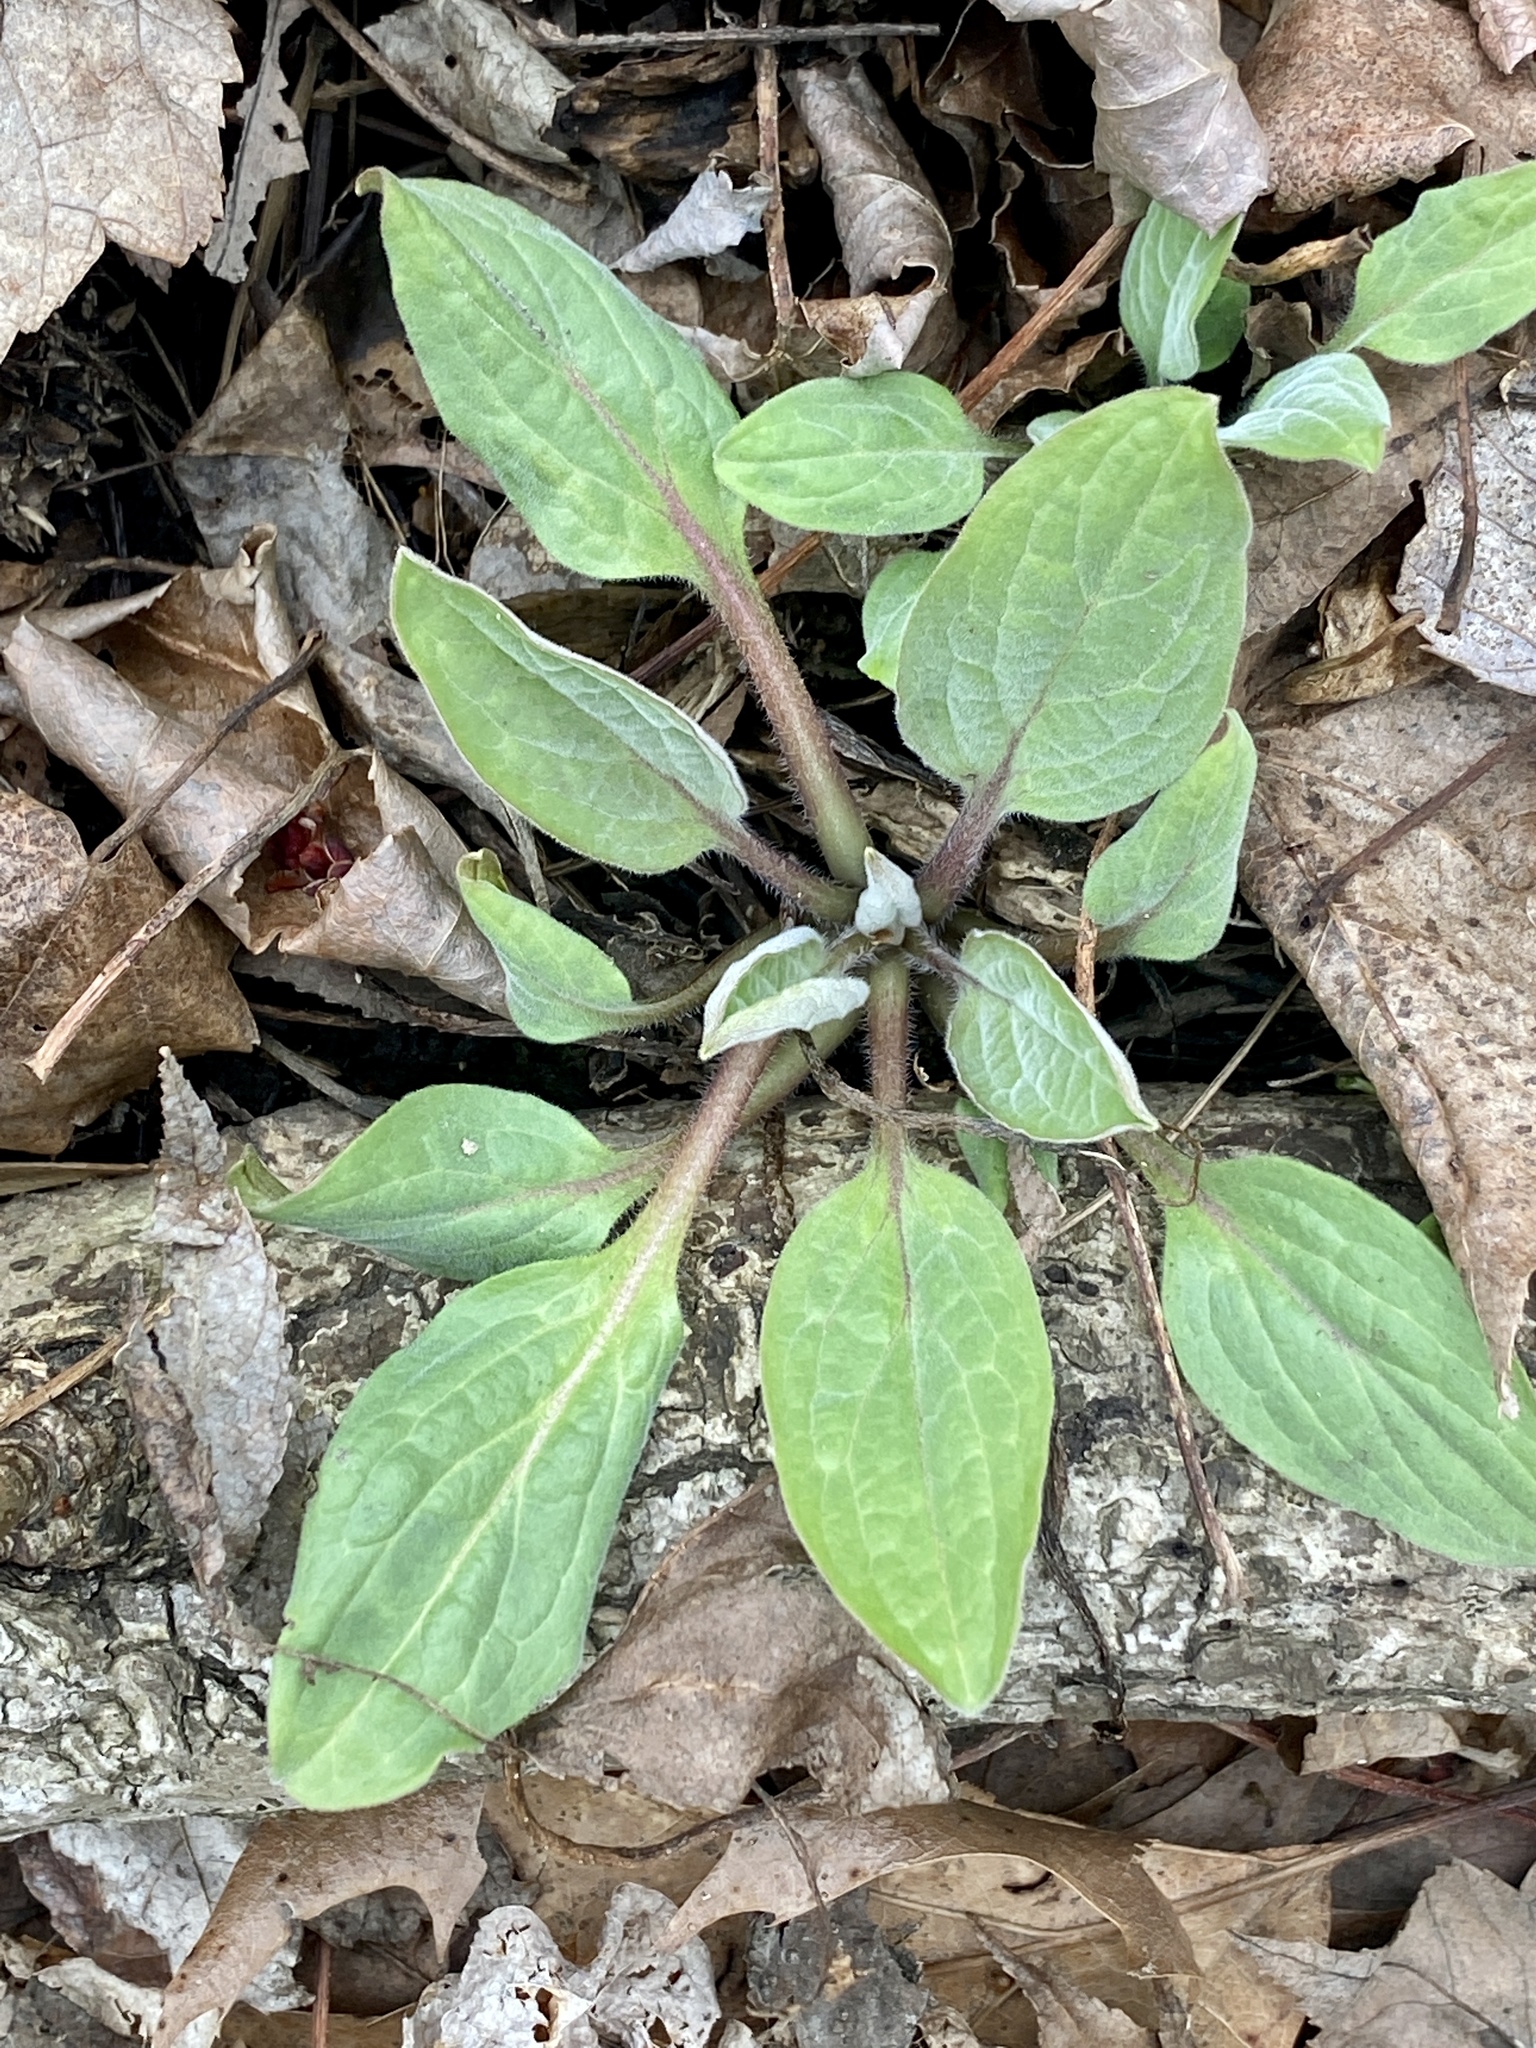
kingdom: Plantae
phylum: Tracheophyta
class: Magnoliopsida
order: Boraginales
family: Boraginaceae
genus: Hackelia
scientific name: Hackelia virginiana
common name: Beggar's-lice
